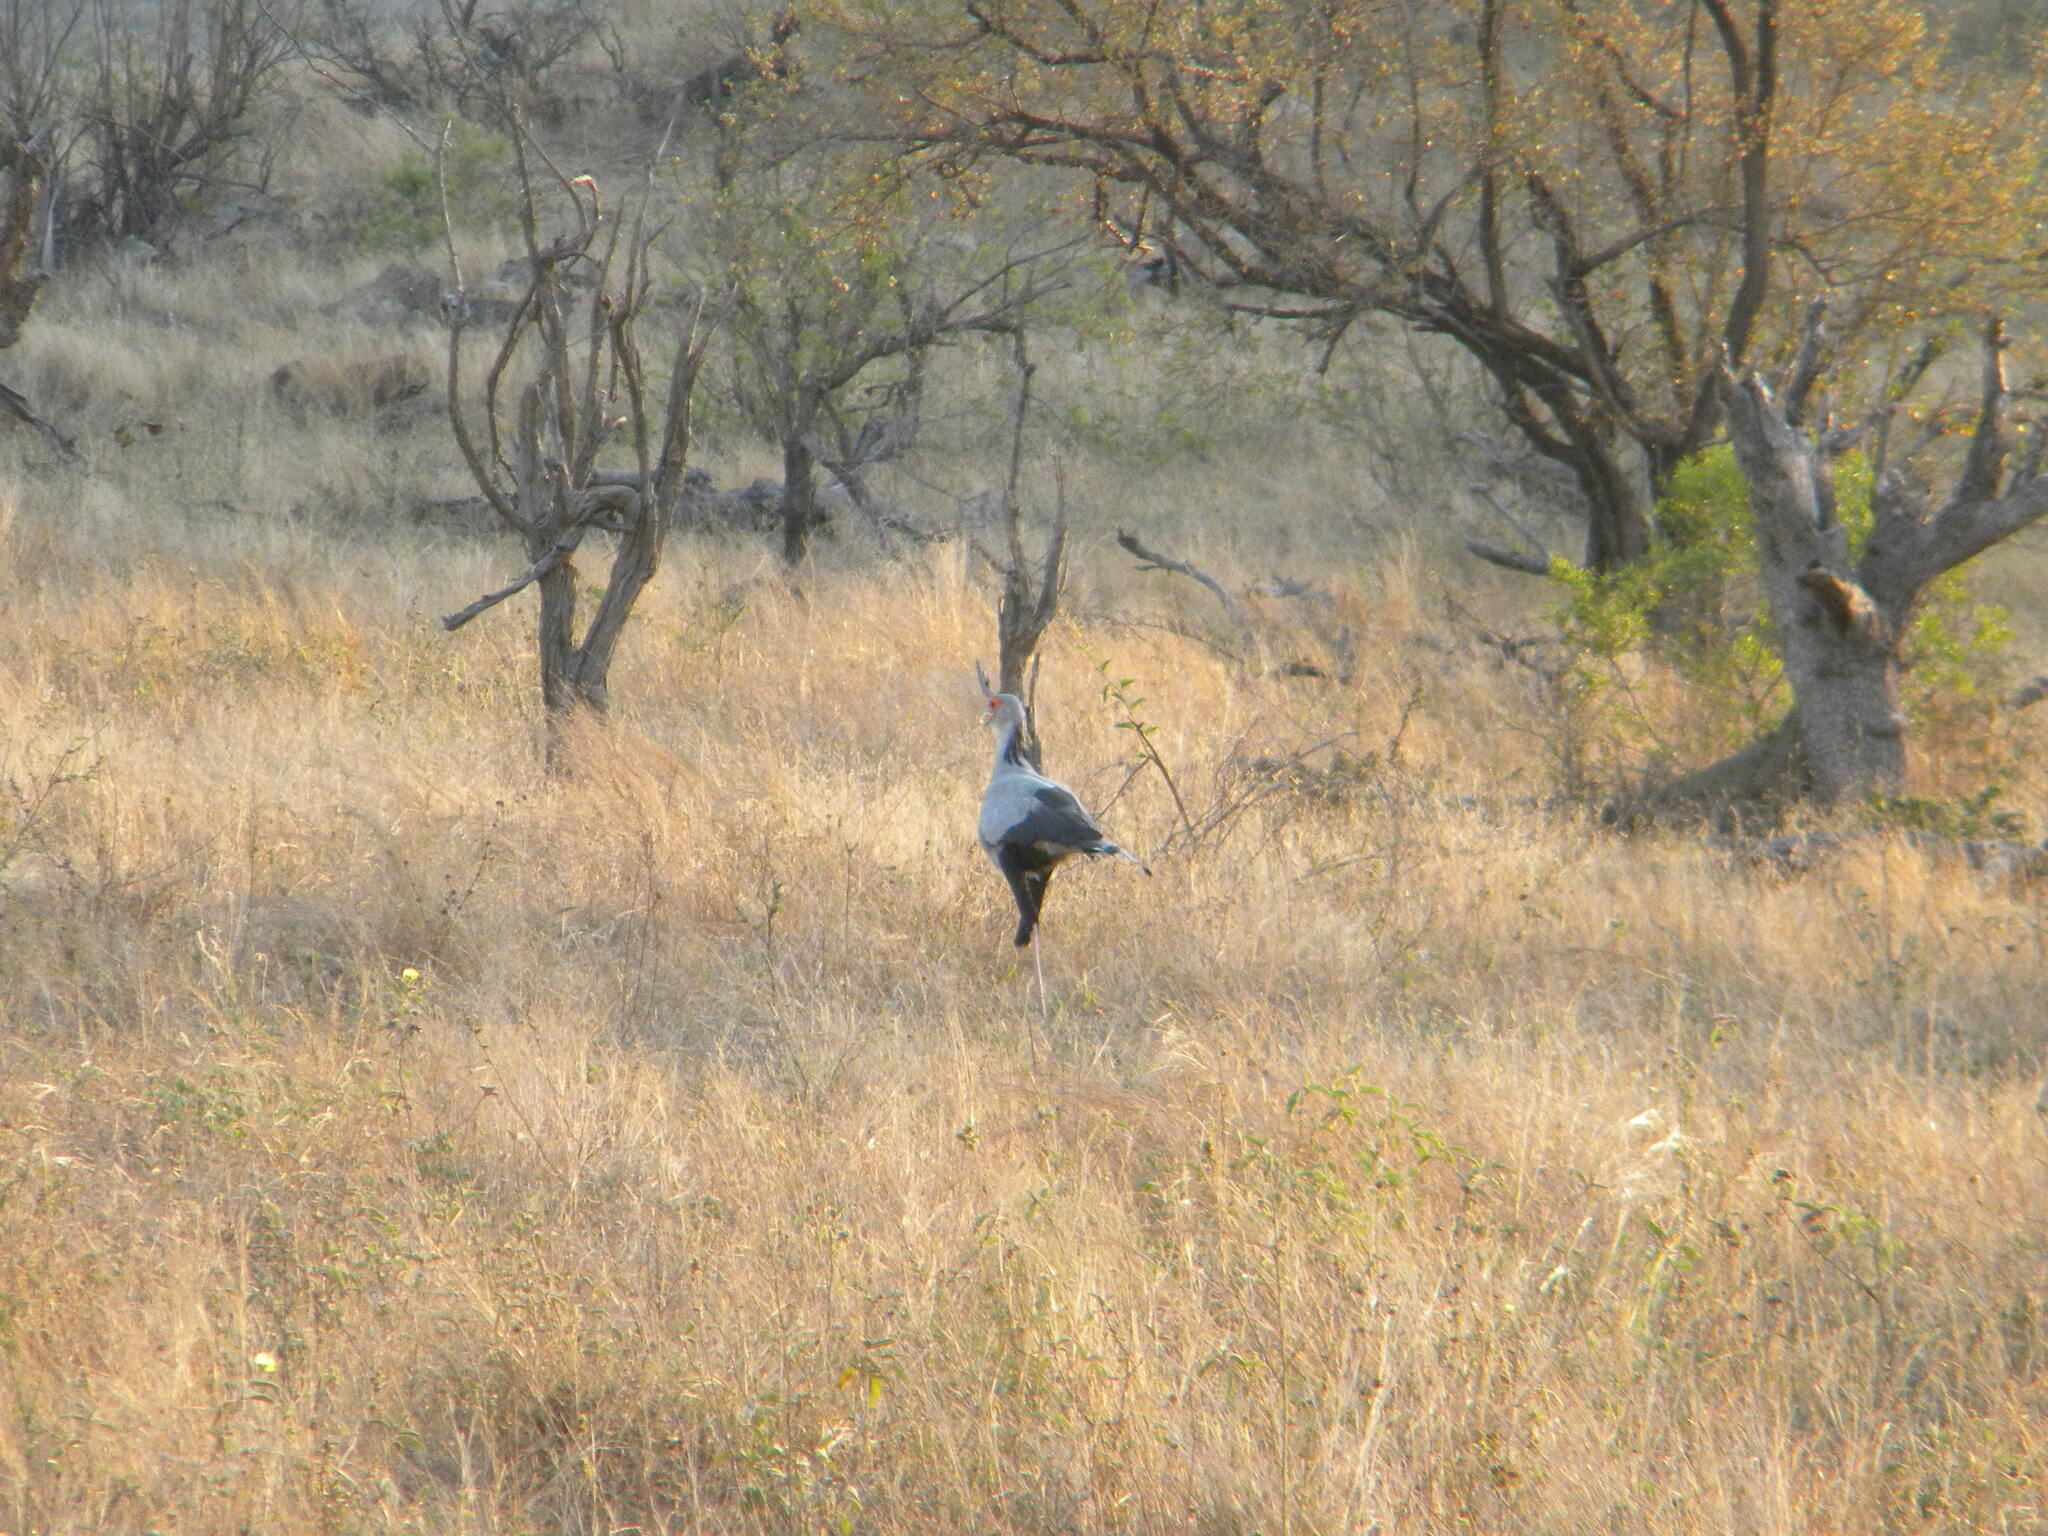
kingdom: Animalia
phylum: Chordata
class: Aves
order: Accipitriformes
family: Sagittariidae
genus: Sagittarius
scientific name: Sagittarius serpentarius
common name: Secretarybird
